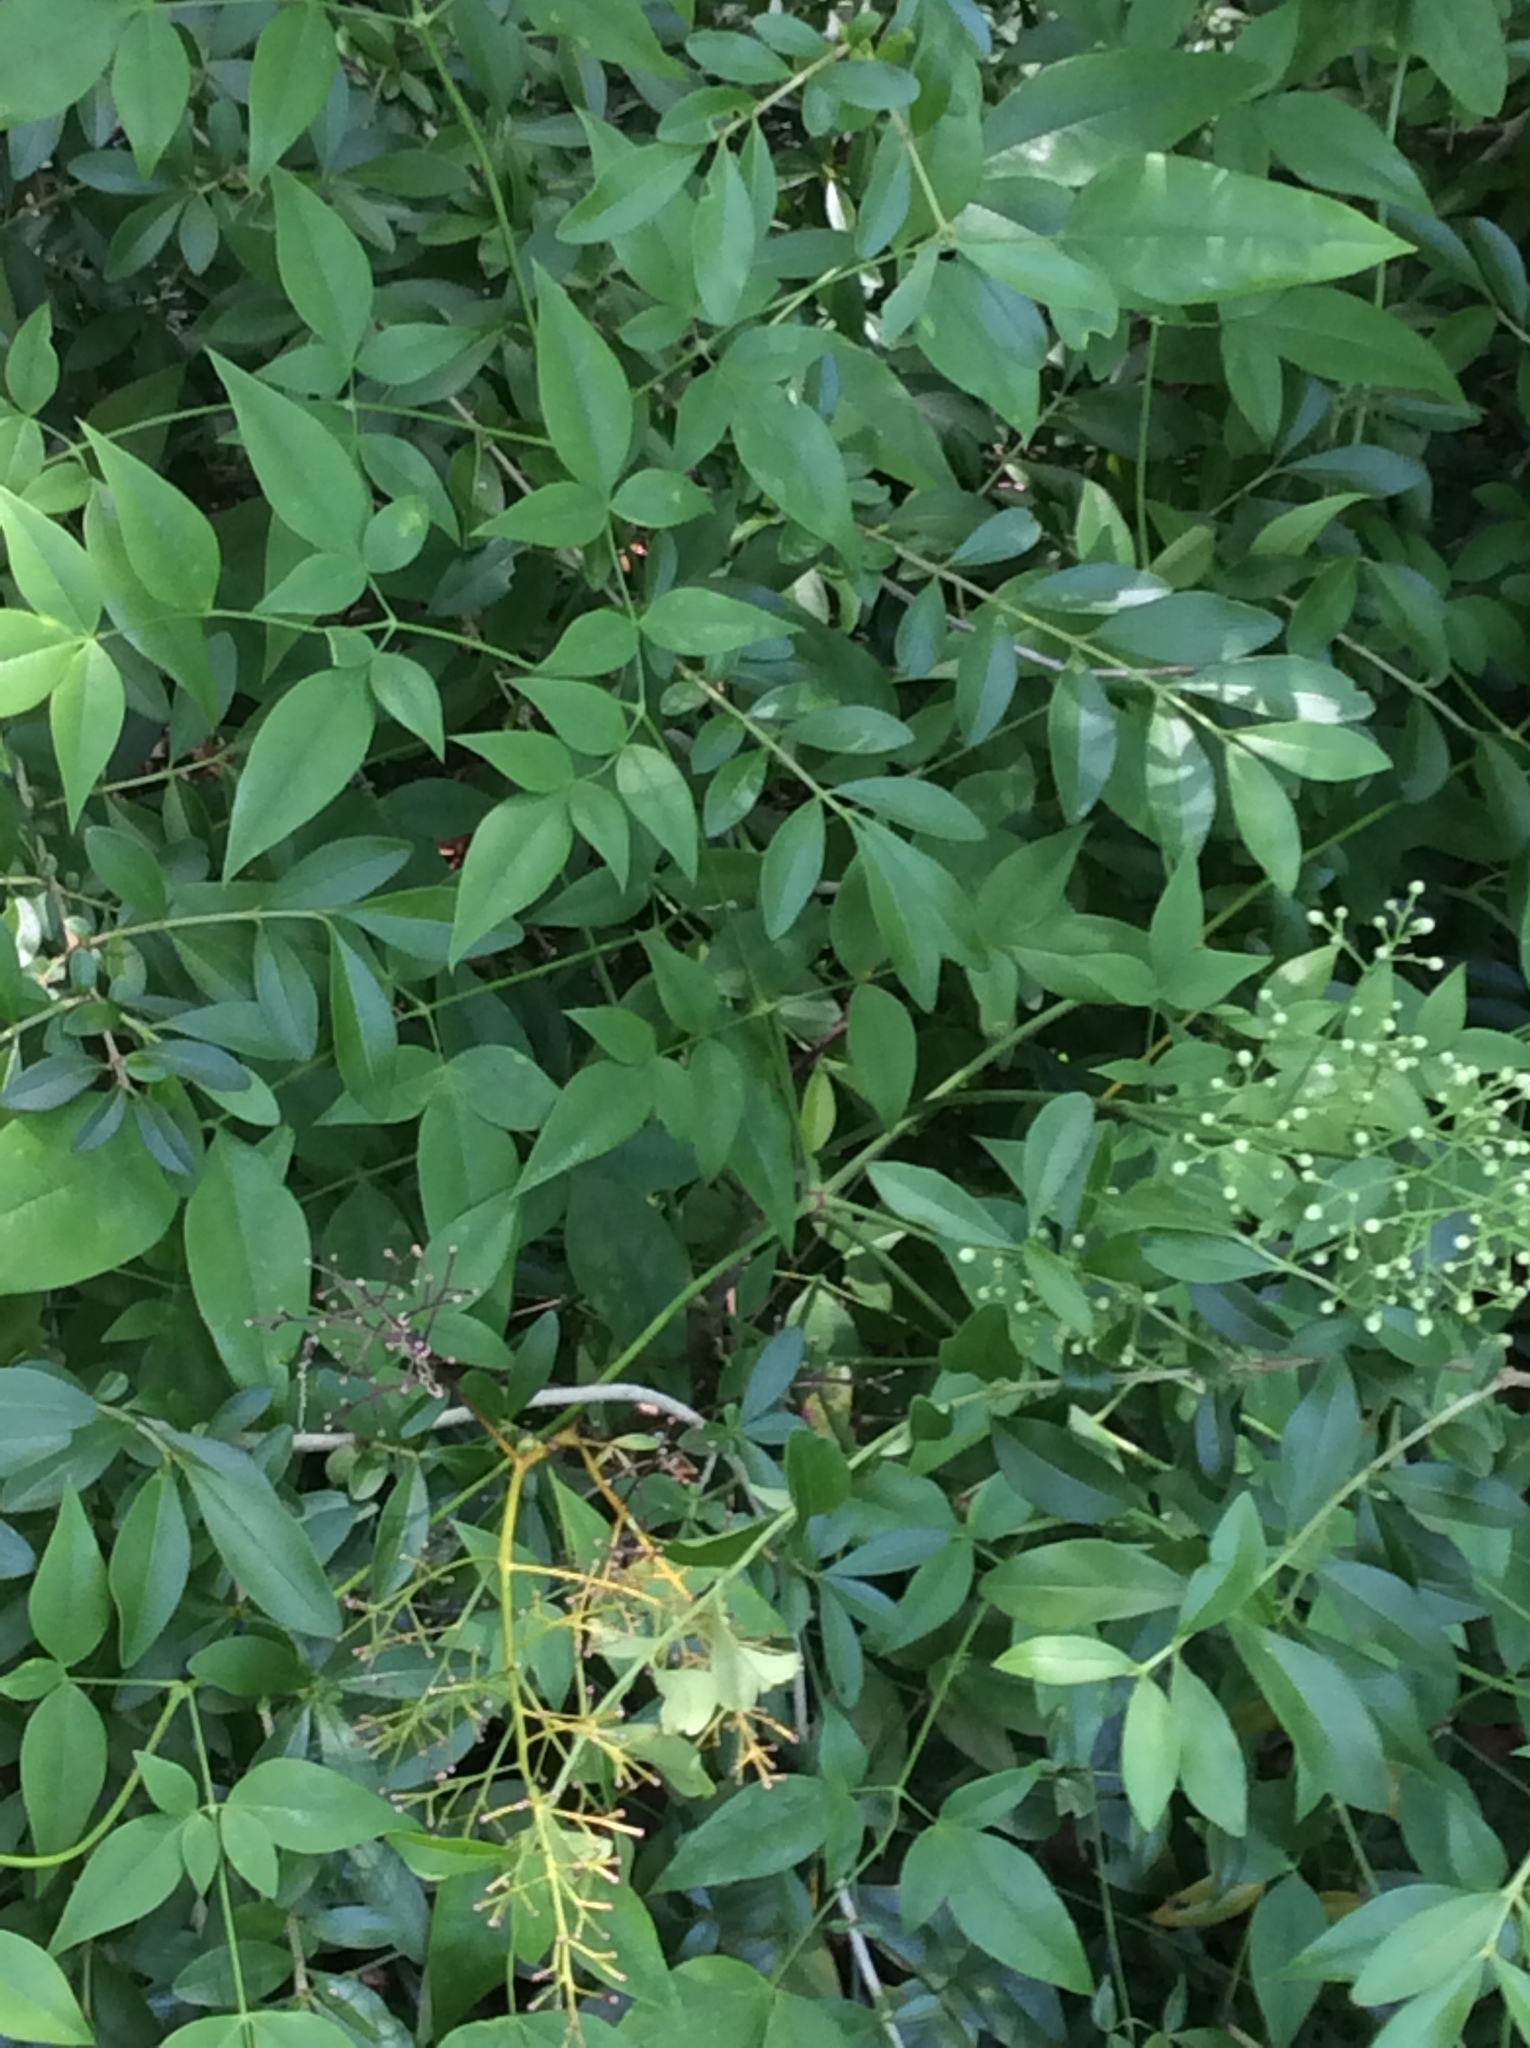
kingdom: Plantae
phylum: Tracheophyta
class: Magnoliopsida
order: Ranunculales
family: Berberidaceae
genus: Nandina
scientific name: Nandina domestica
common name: Sacred bamboo
